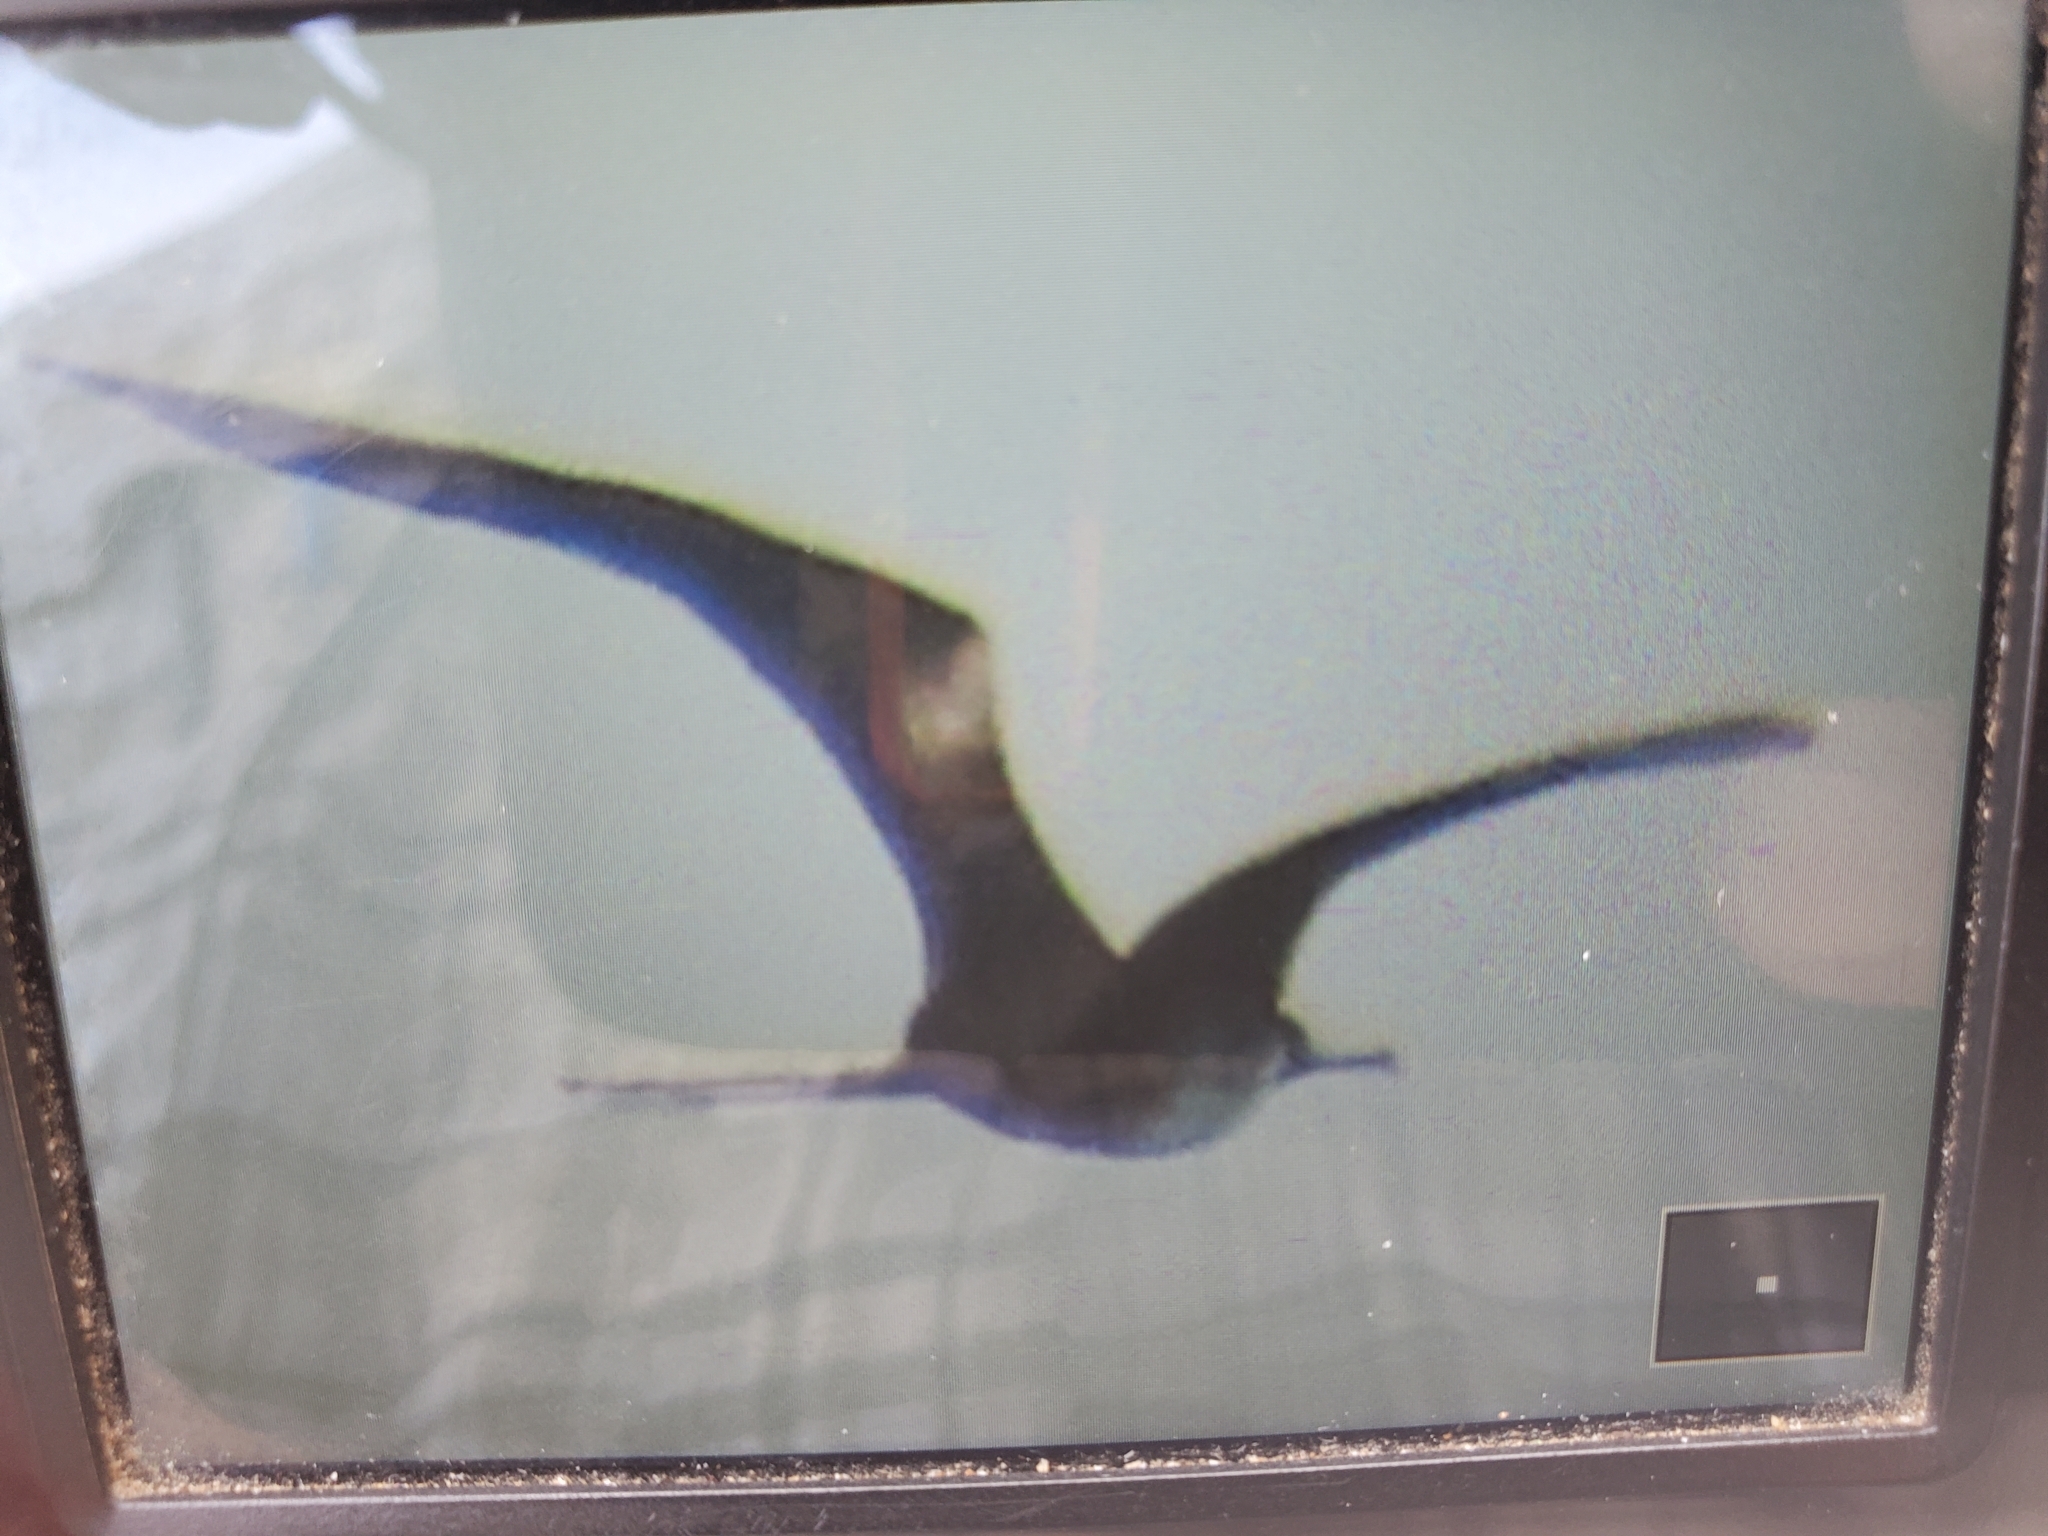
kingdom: Animalia
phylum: Chordata
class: Aves
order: Suliformes
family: Fregatidae
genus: Fregata
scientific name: Fregata magnificens
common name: Magnificent frigatebird
